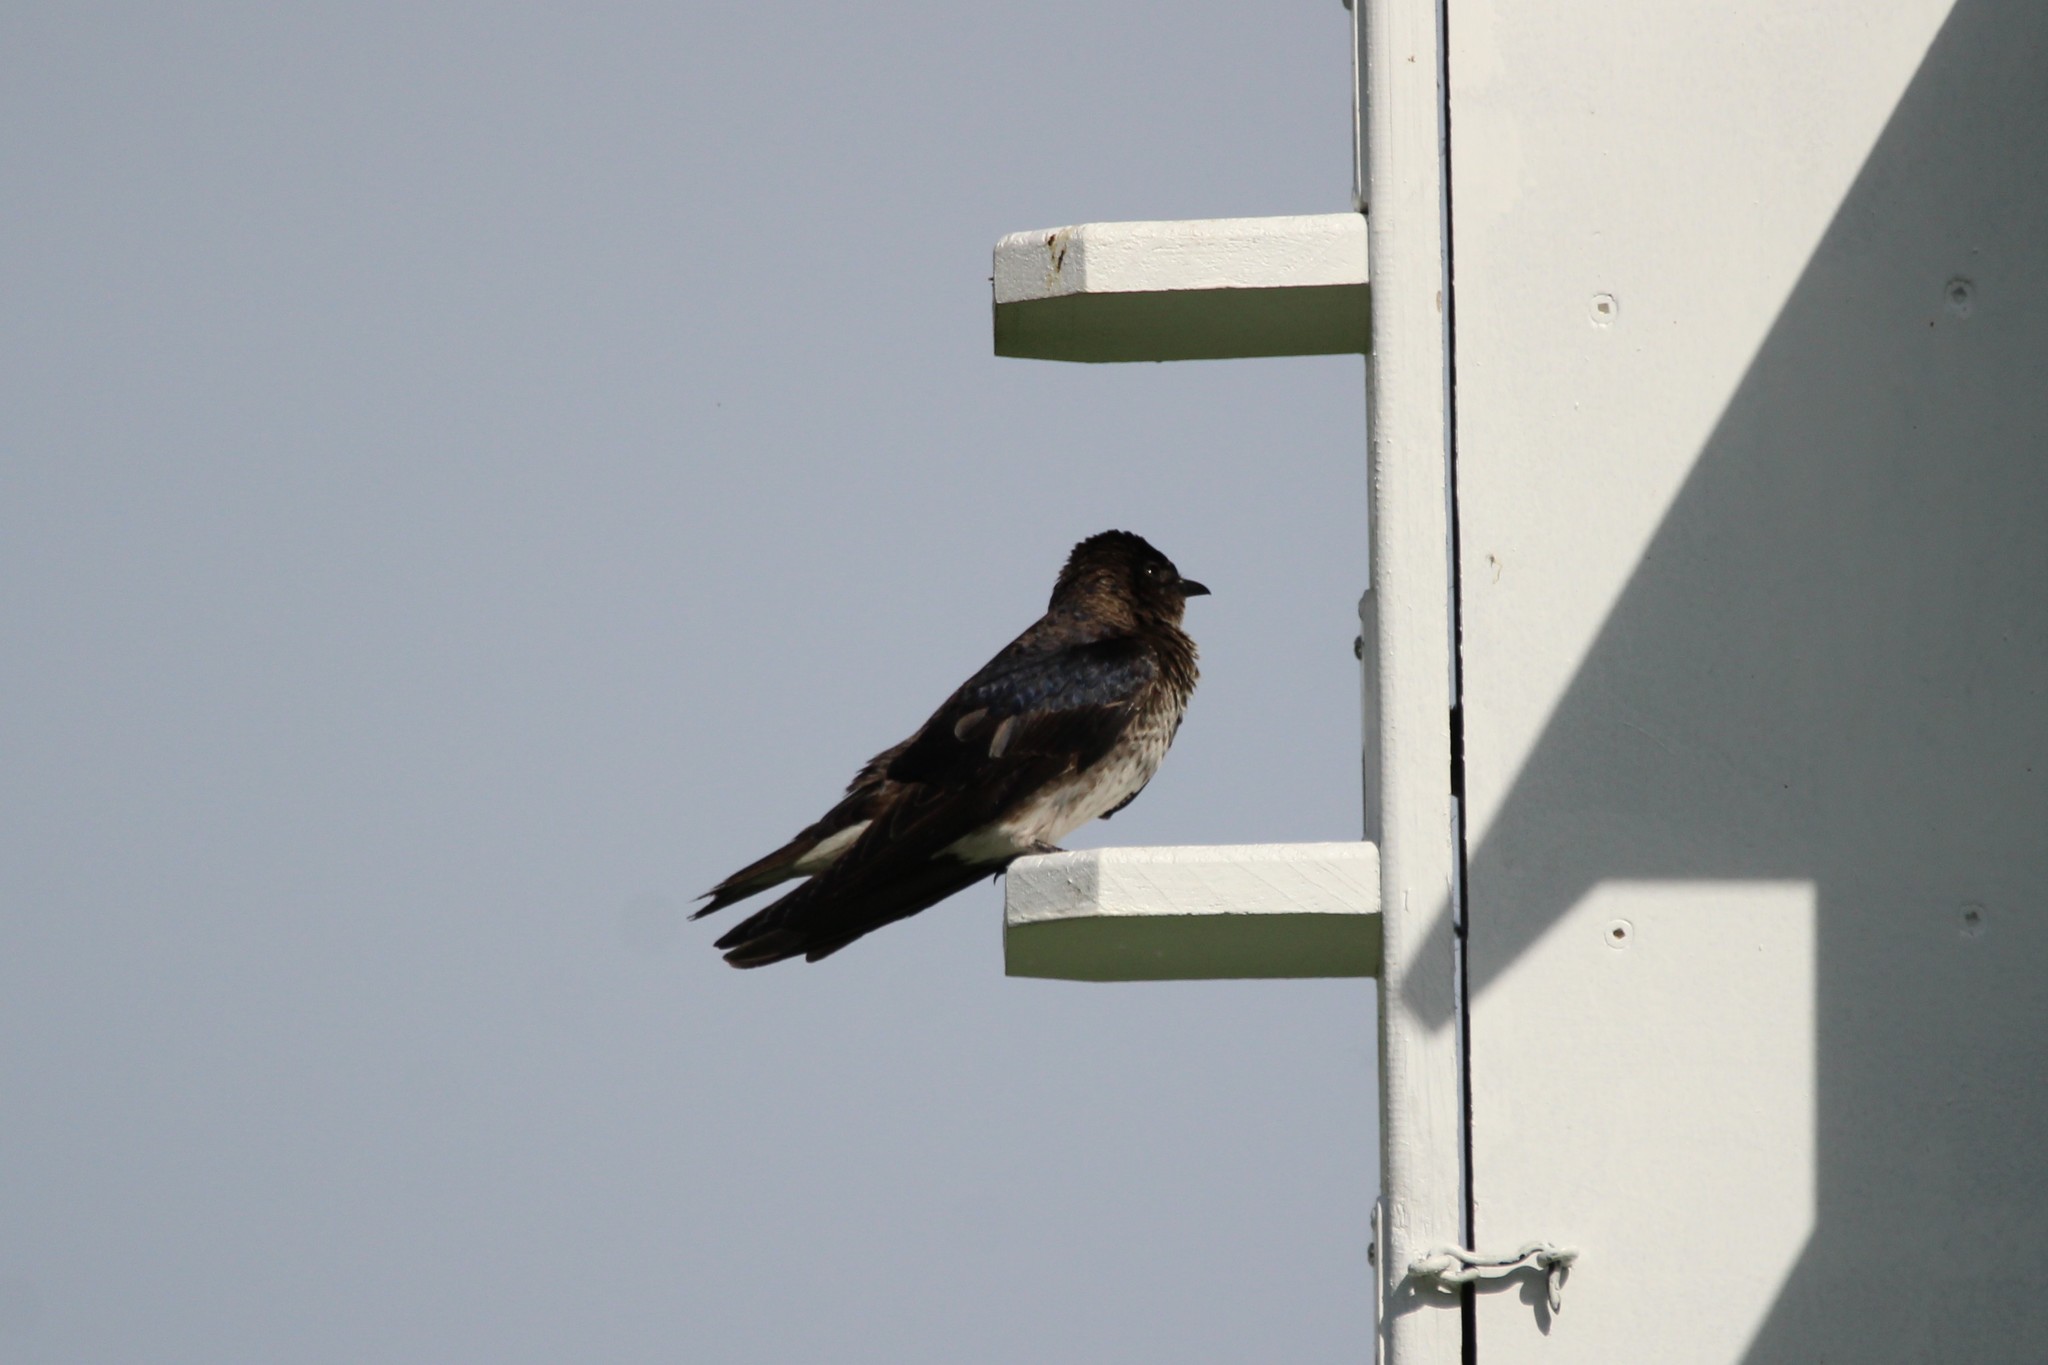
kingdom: Animalia
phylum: Chordata
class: Aves
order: Passeriformes
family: Hirundinidae
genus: Progne
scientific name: Progne subis
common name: Purple martin
